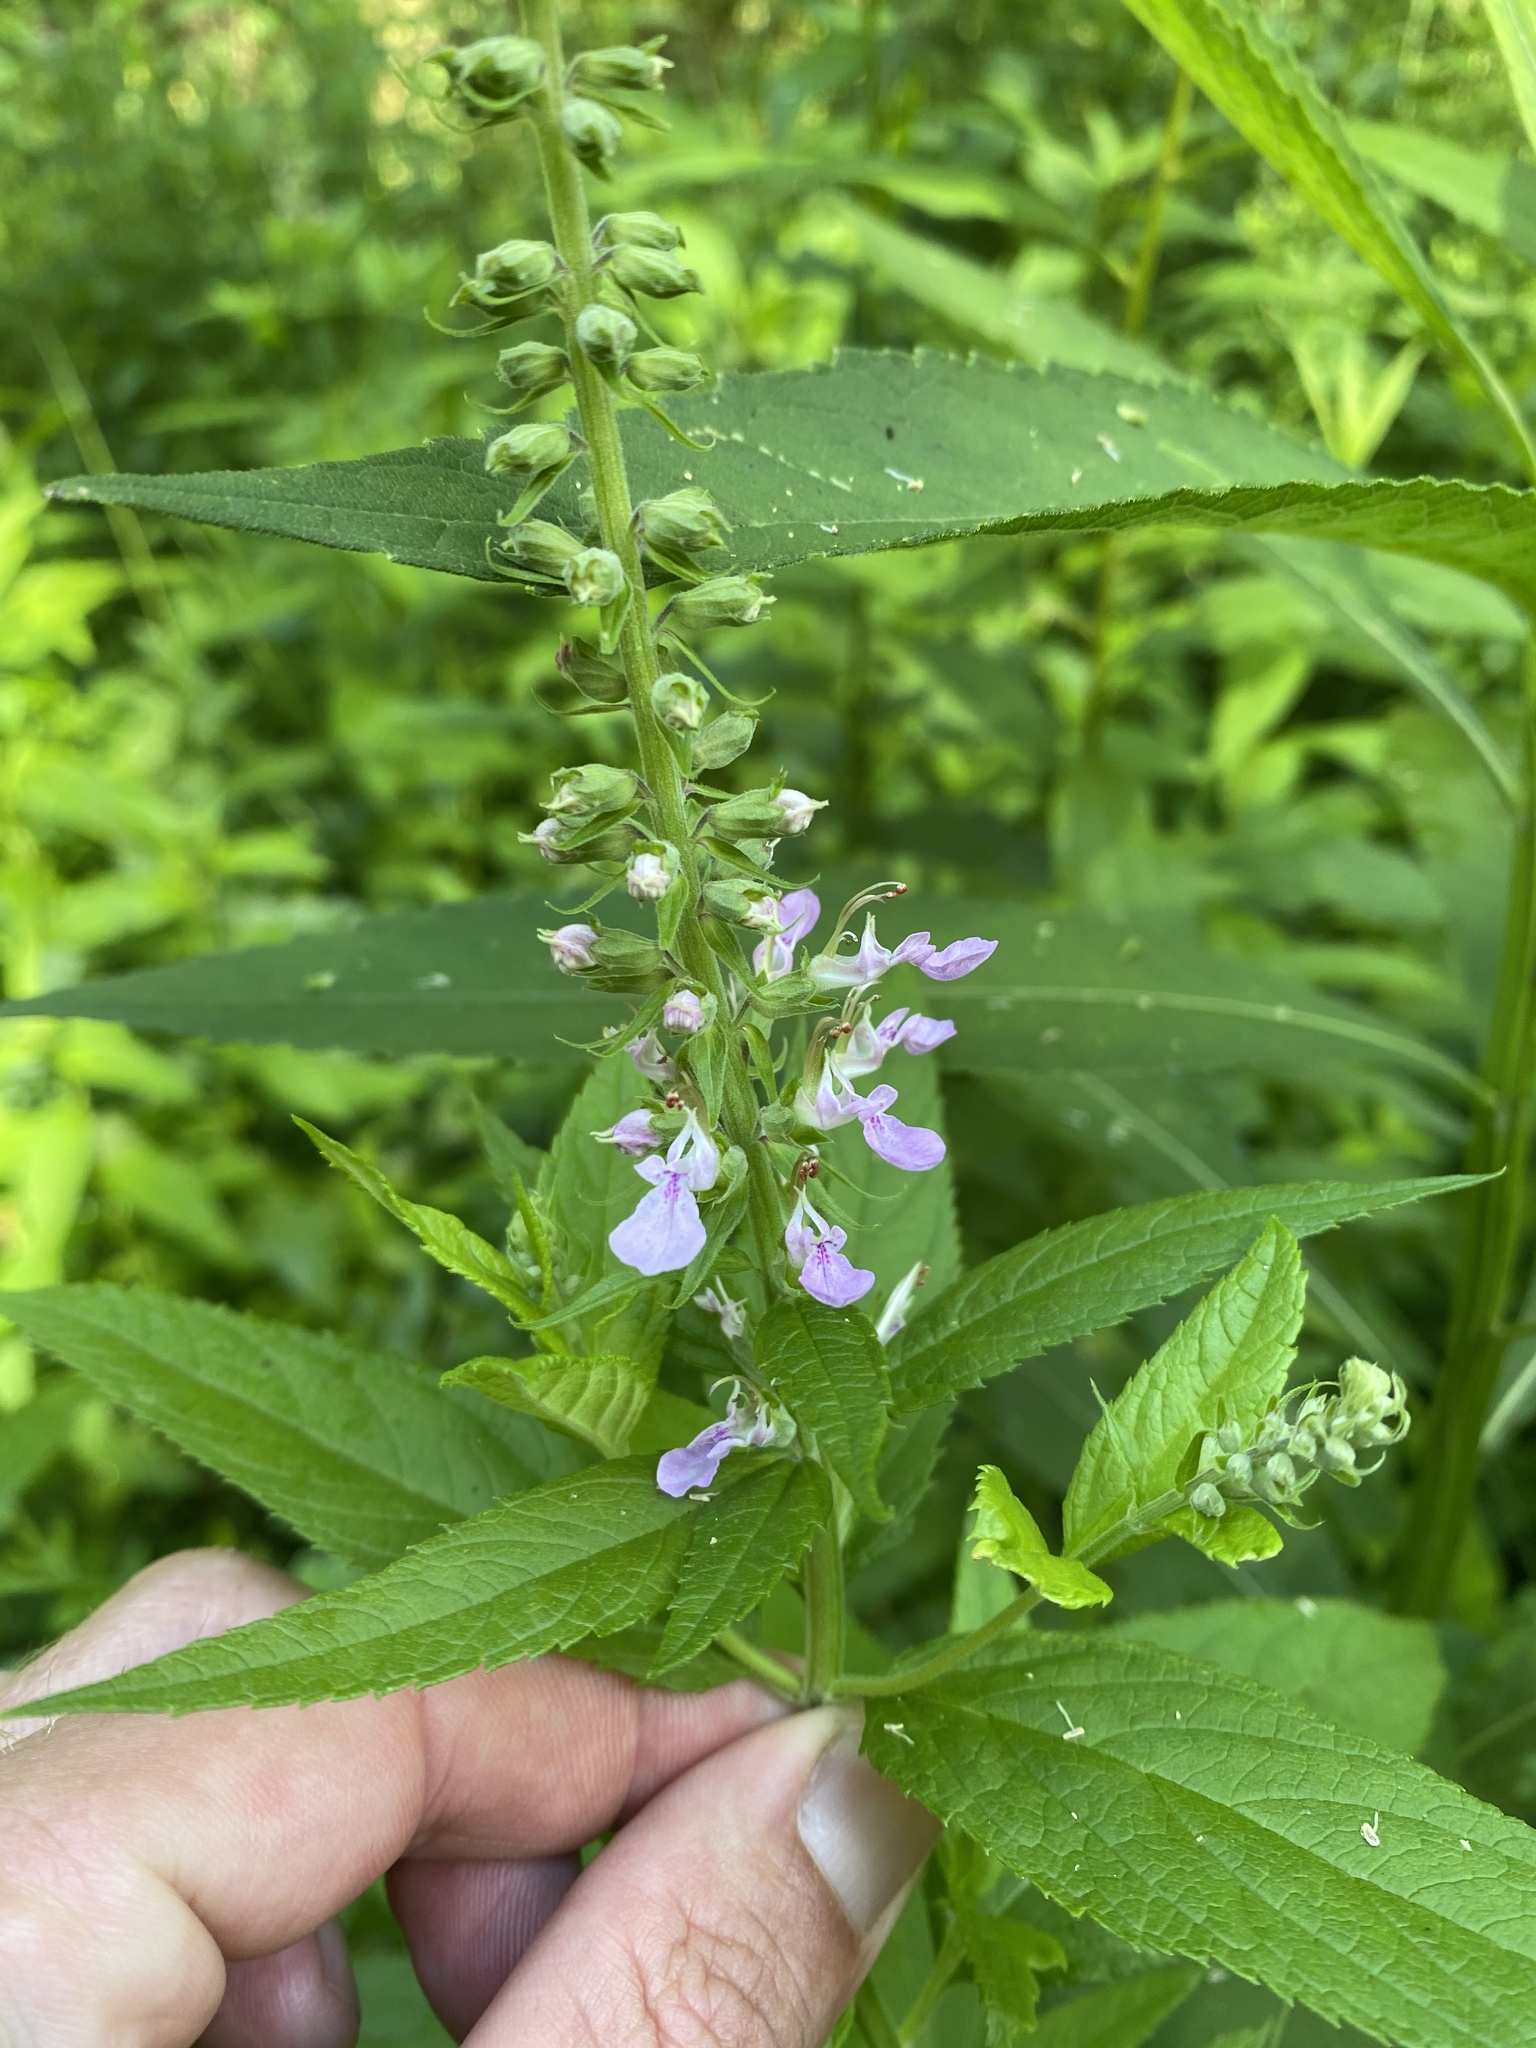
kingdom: Plantae
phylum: Tracheophyta
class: Magnoliopsida
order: Lamiales
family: Lamiaceae
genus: Teucrium
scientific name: Teucrium canadense
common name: American germander
